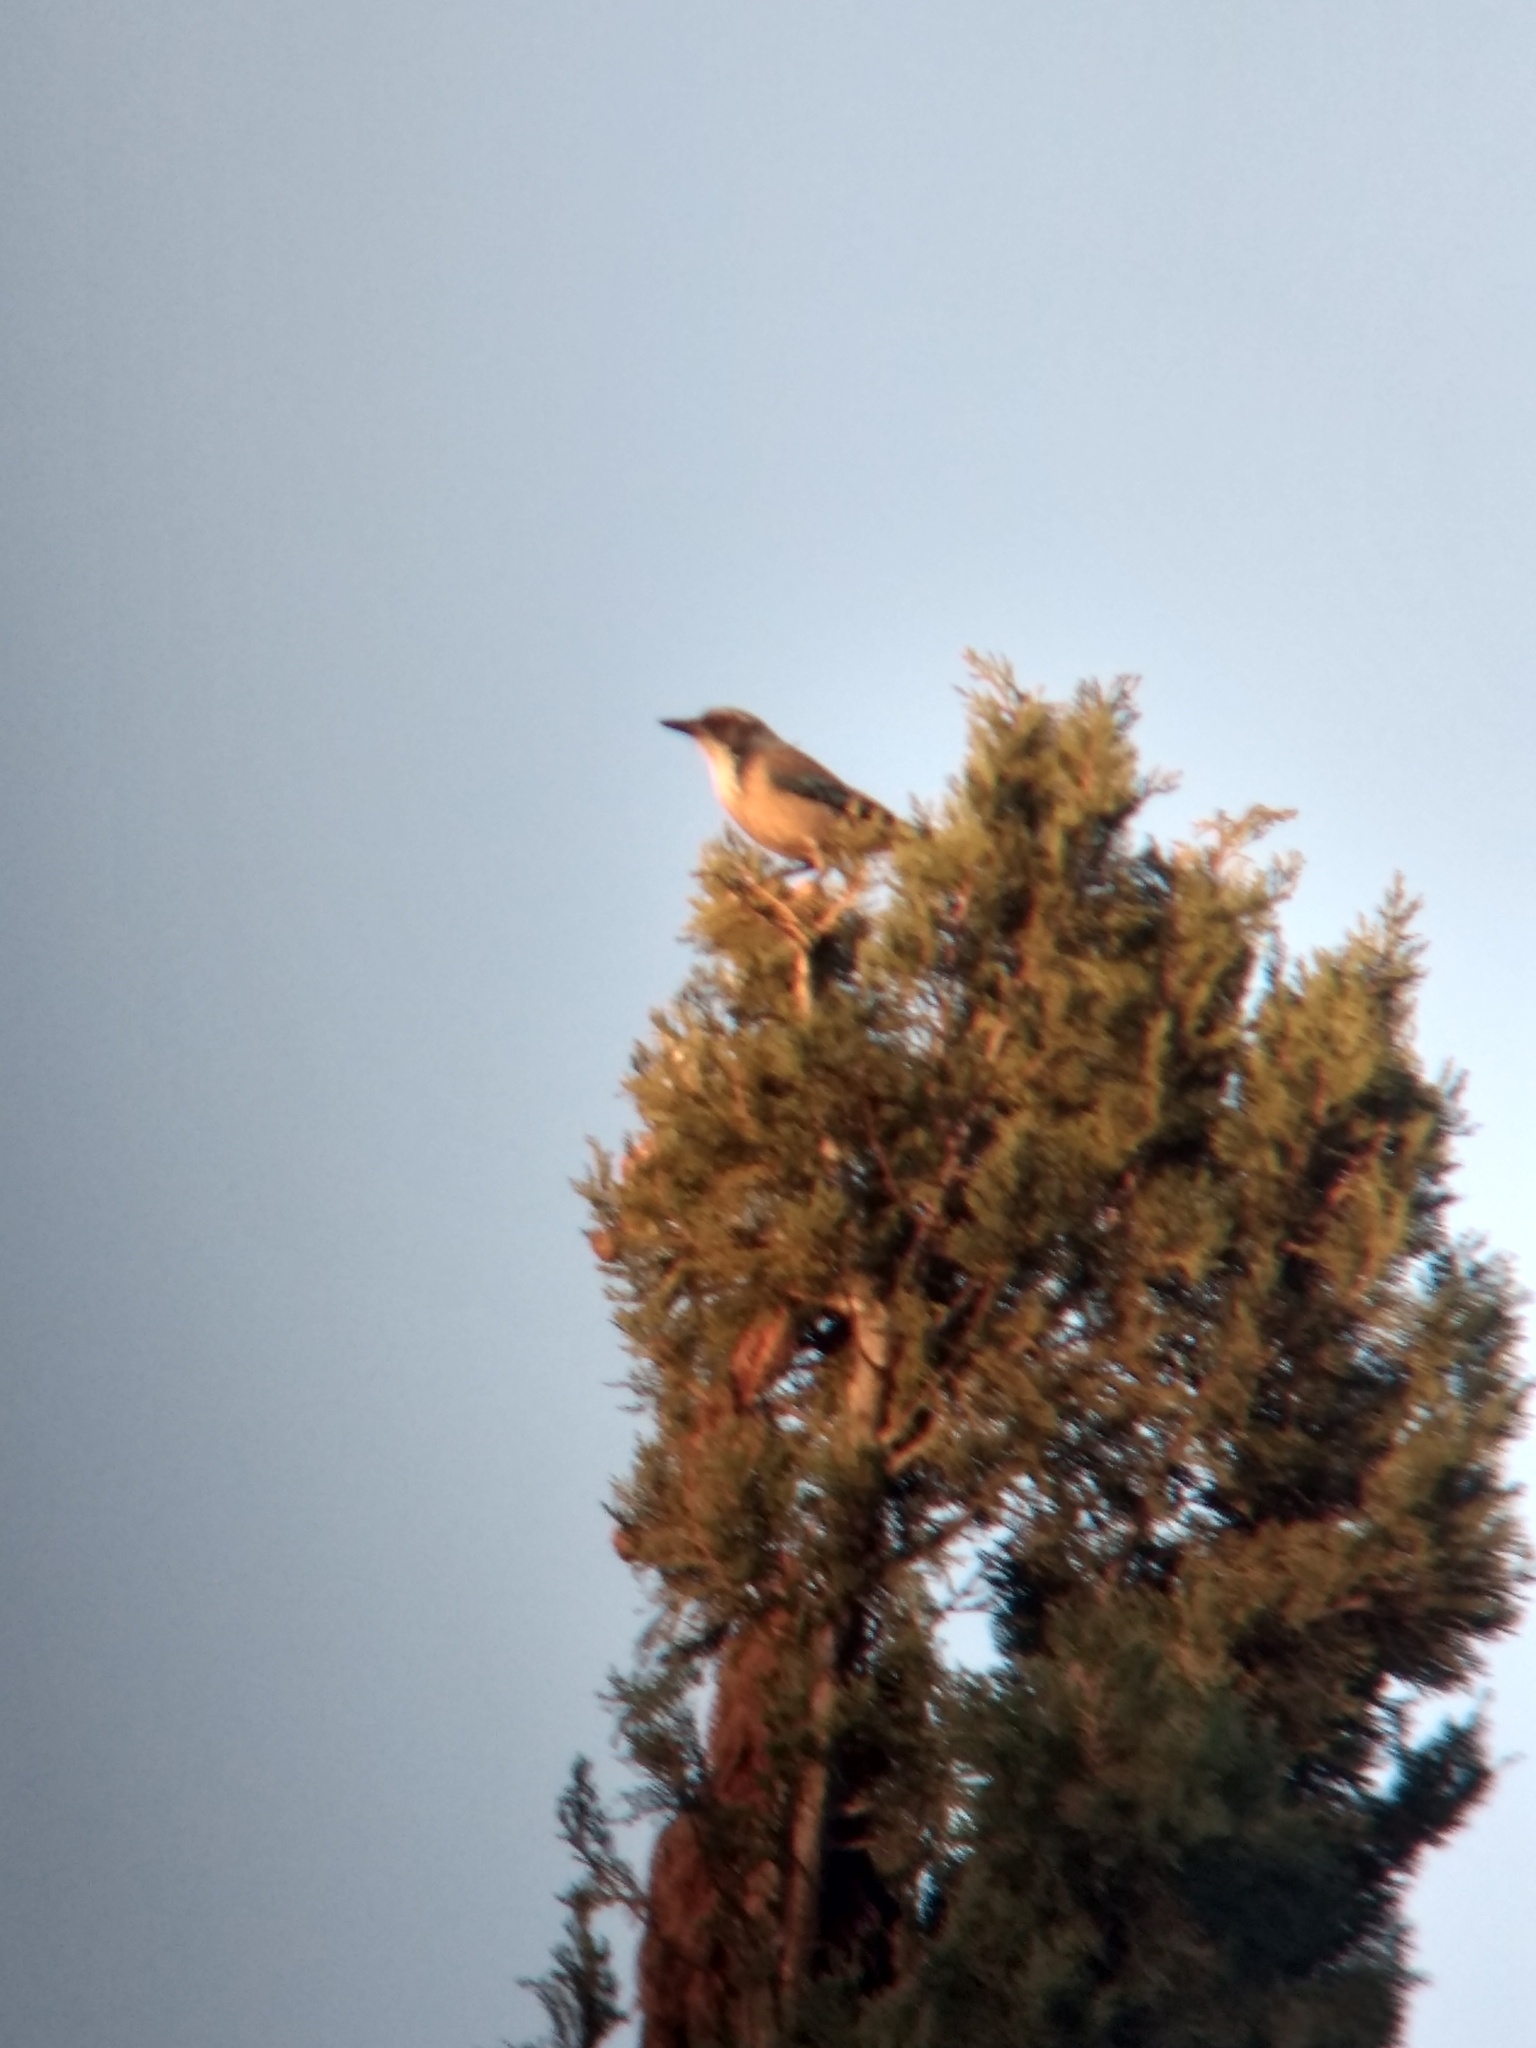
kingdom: Animalia
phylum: Chordata
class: Aves
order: Passeriformes
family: Corvidae
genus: Aphelocoma
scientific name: Aphelocoma californica
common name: California scrub-jay
